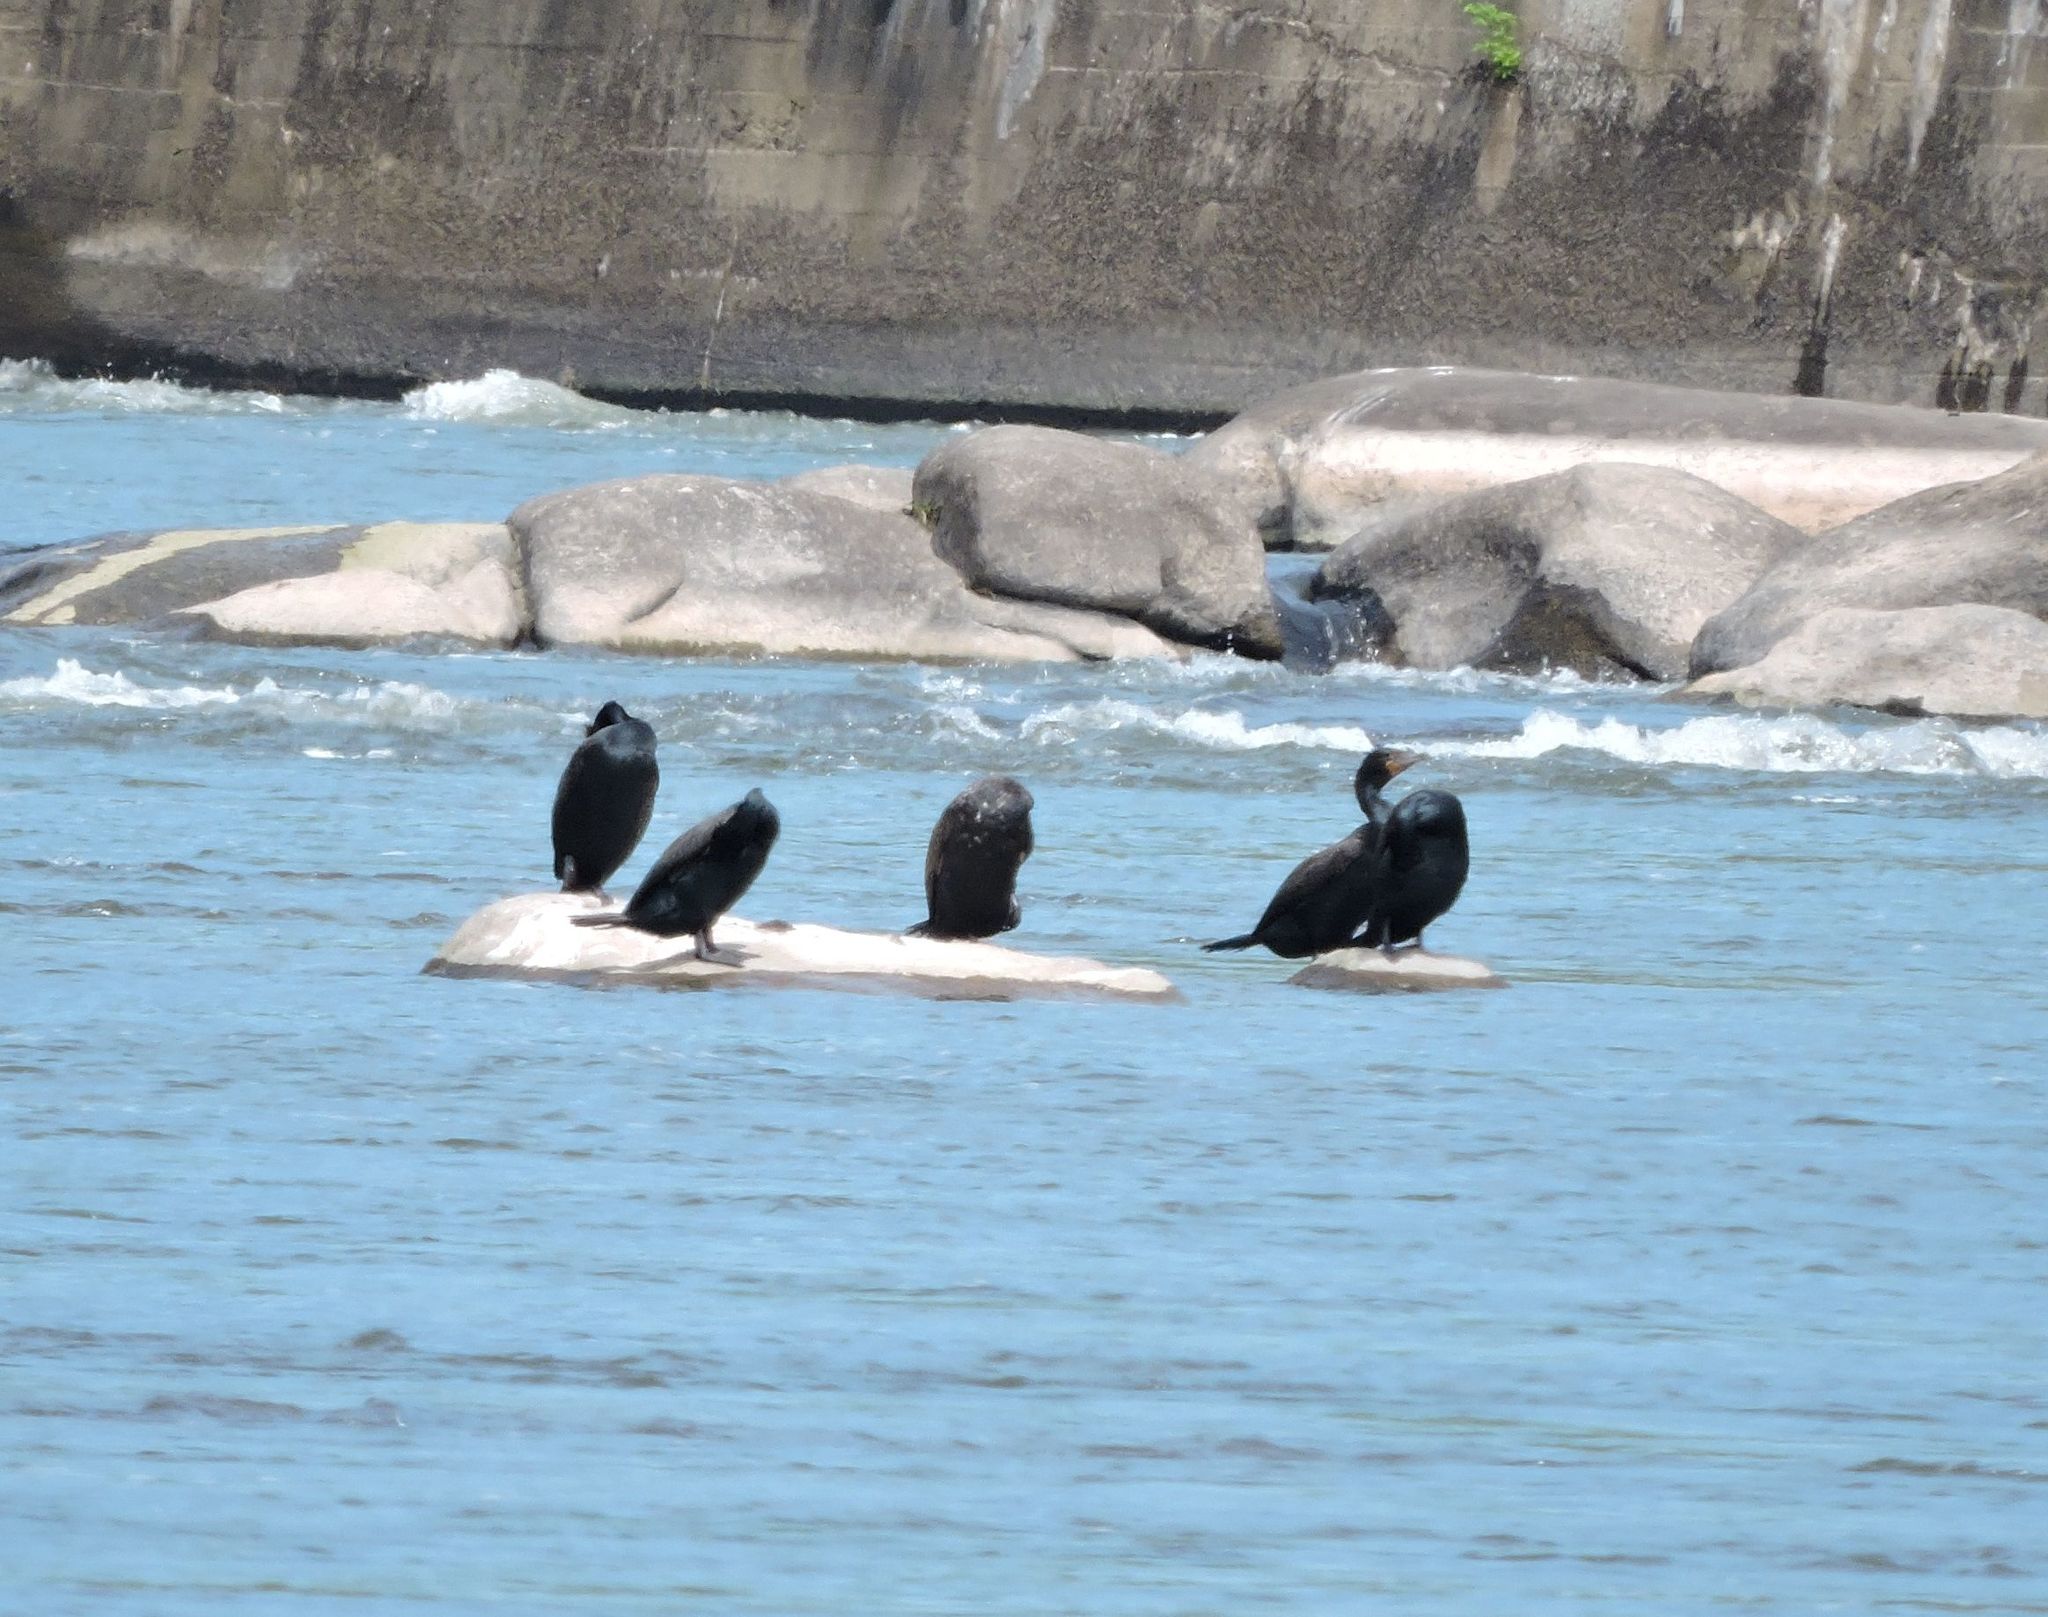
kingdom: Animalia
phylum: Chordata
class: Aves
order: Suliformes
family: Phalacrocoracidae
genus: Phalacrocorax
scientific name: Phalacrocorax auritus
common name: Double-crested cormorant
